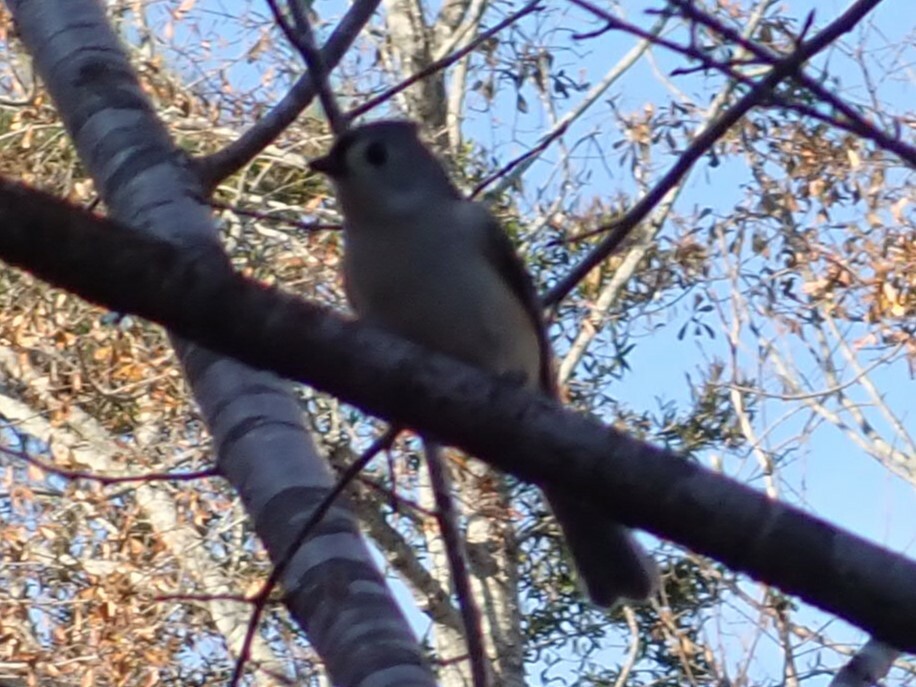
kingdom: Animalia
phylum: Chordata
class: Aves
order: Passeriformes
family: Paridae
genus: Baeolophus
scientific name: Baeolophus bicolor
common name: Tufted titmouse
